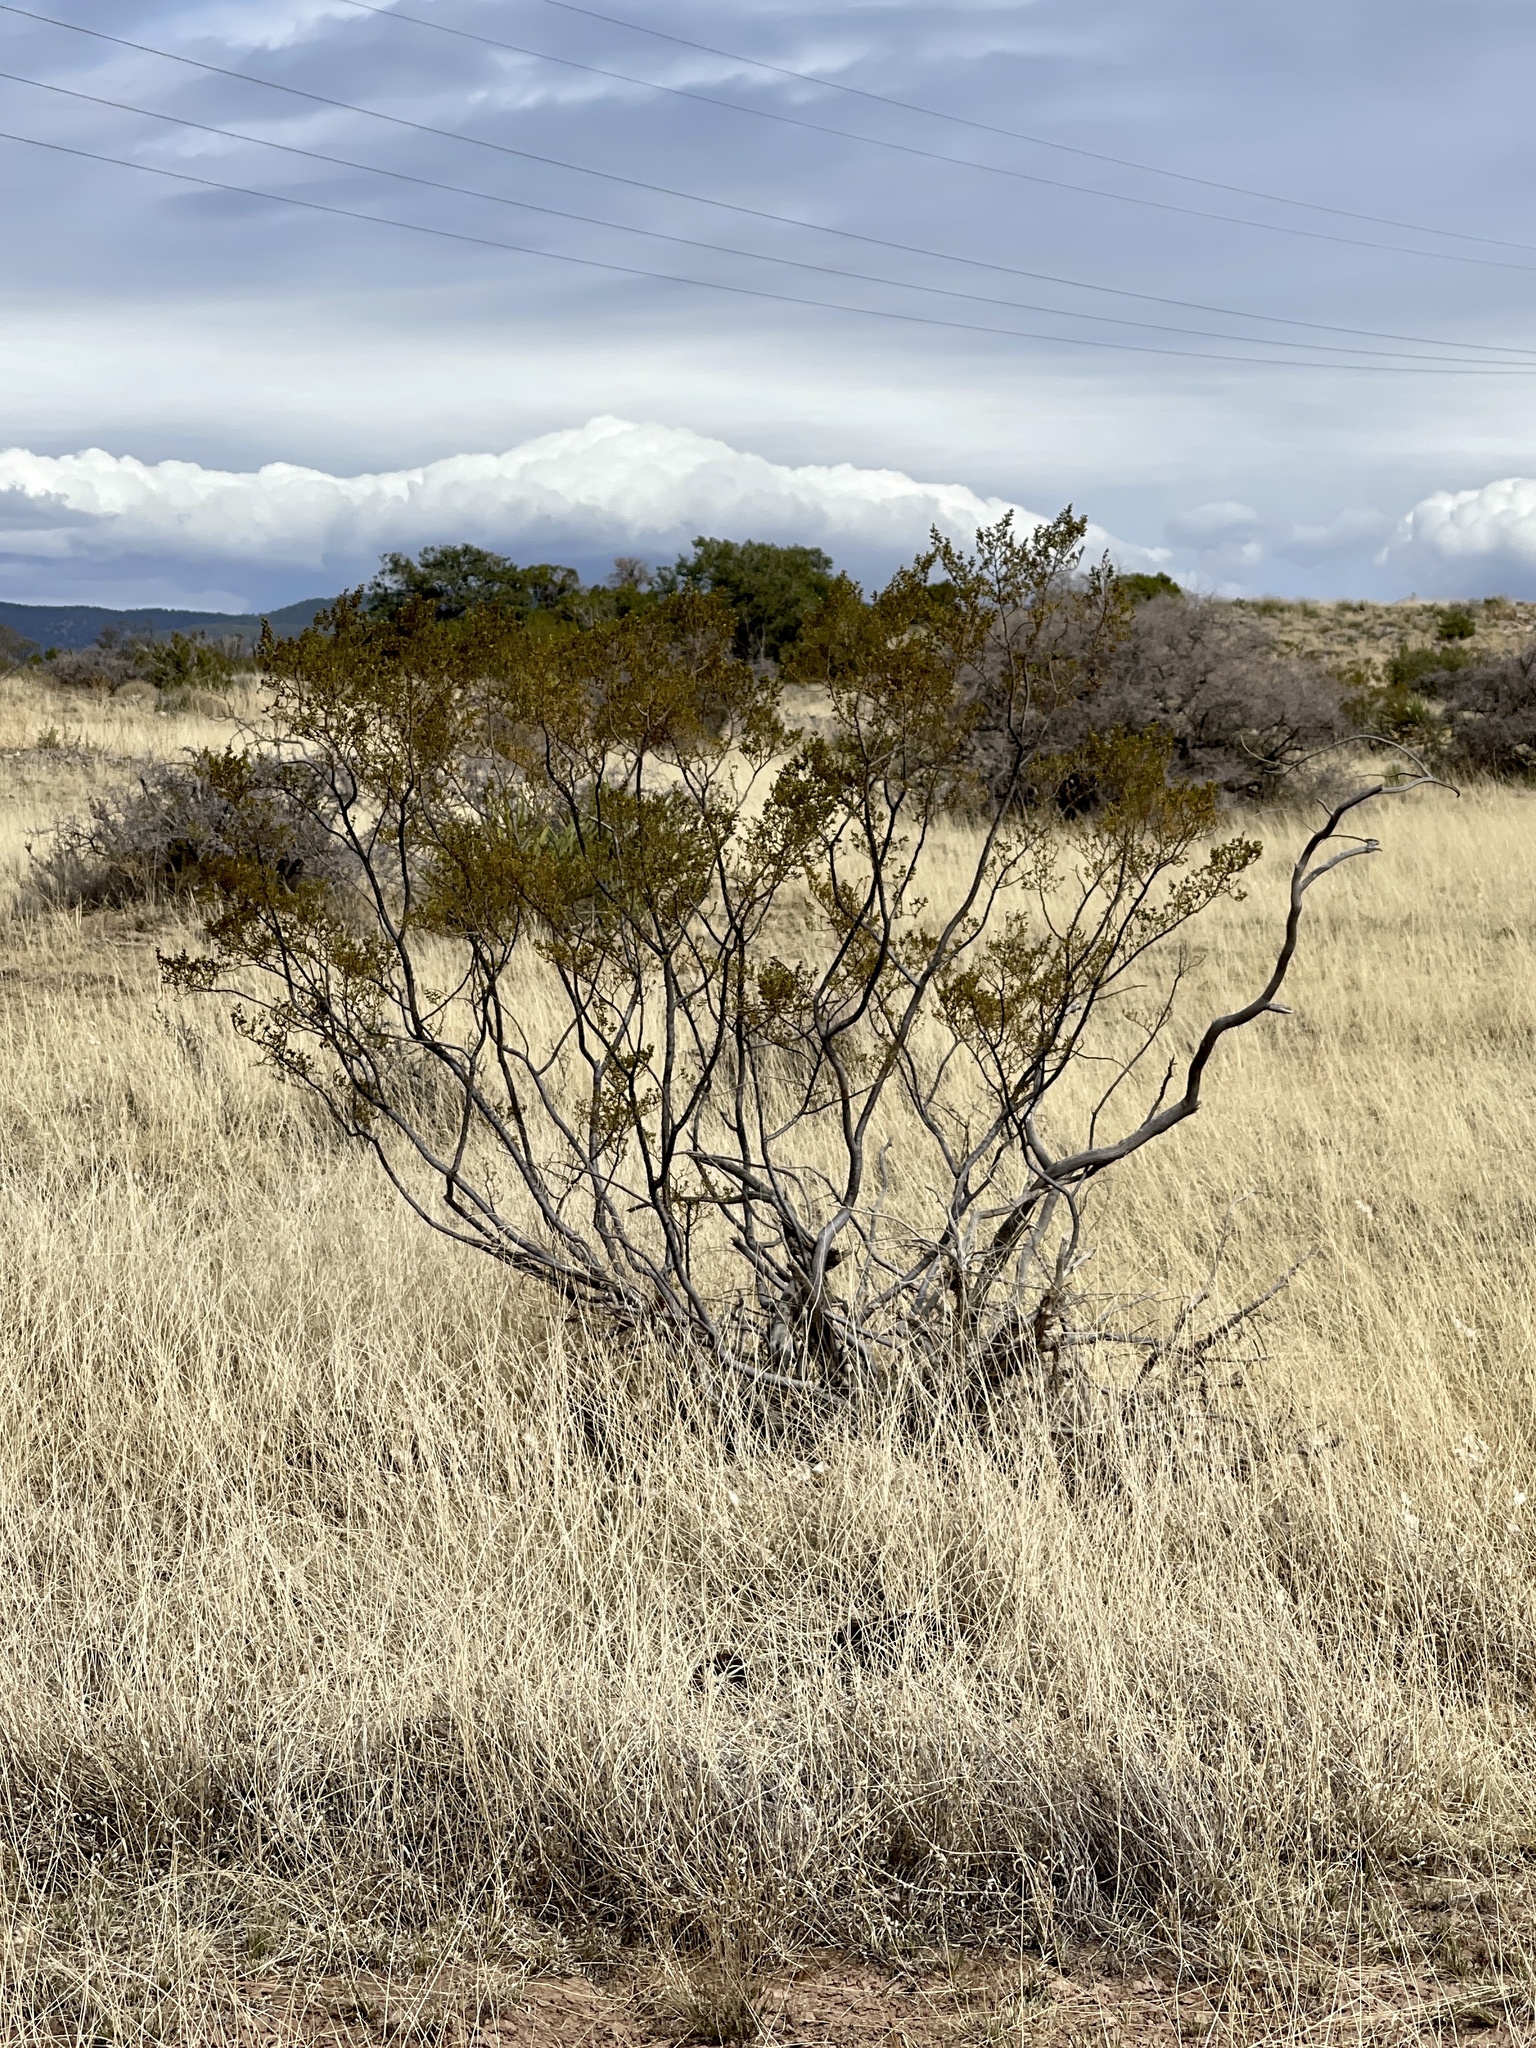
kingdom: Plantae
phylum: Tracheophyta
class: Magnoliopsida
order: Zygophyllales
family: Zygophyllaceae
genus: Larrea
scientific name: Larrea tridentata
